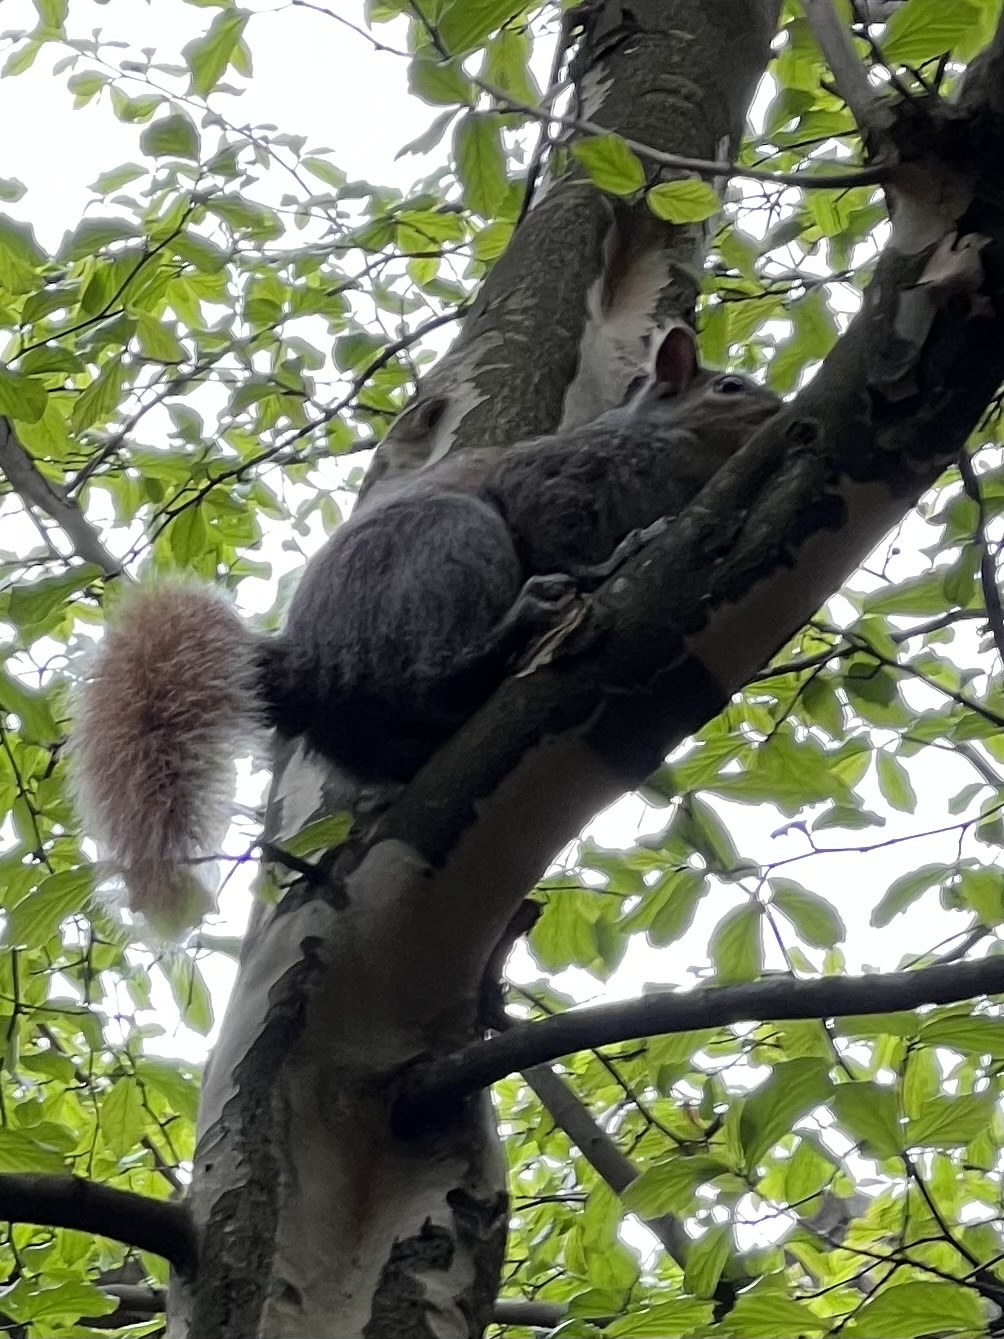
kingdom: Animalia
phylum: Chordata
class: Mammalia
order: Rodentia
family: Sciuridae
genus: Sciurus
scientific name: Sciurus carolinensis
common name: Eastern gray squirrel
